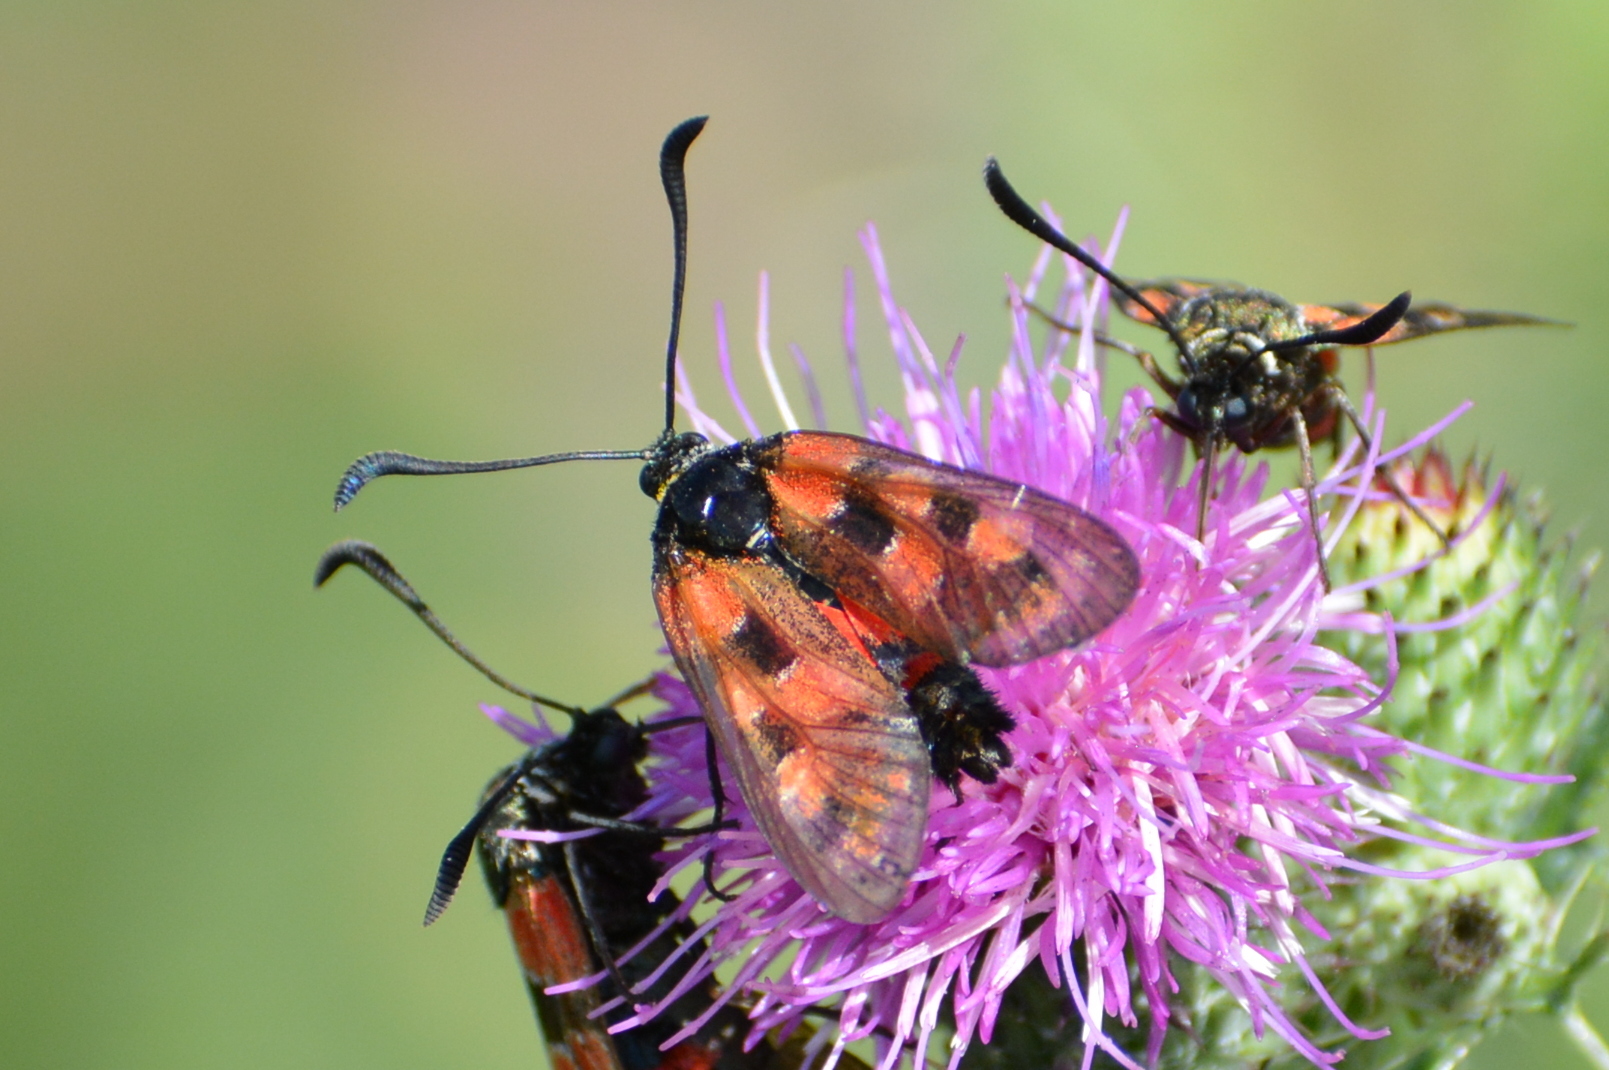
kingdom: Animalia
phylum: Arthropoda
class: Insecta
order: Lepidoptera
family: Zygaenidae
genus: Zygaena
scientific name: Zygaena carniolica
